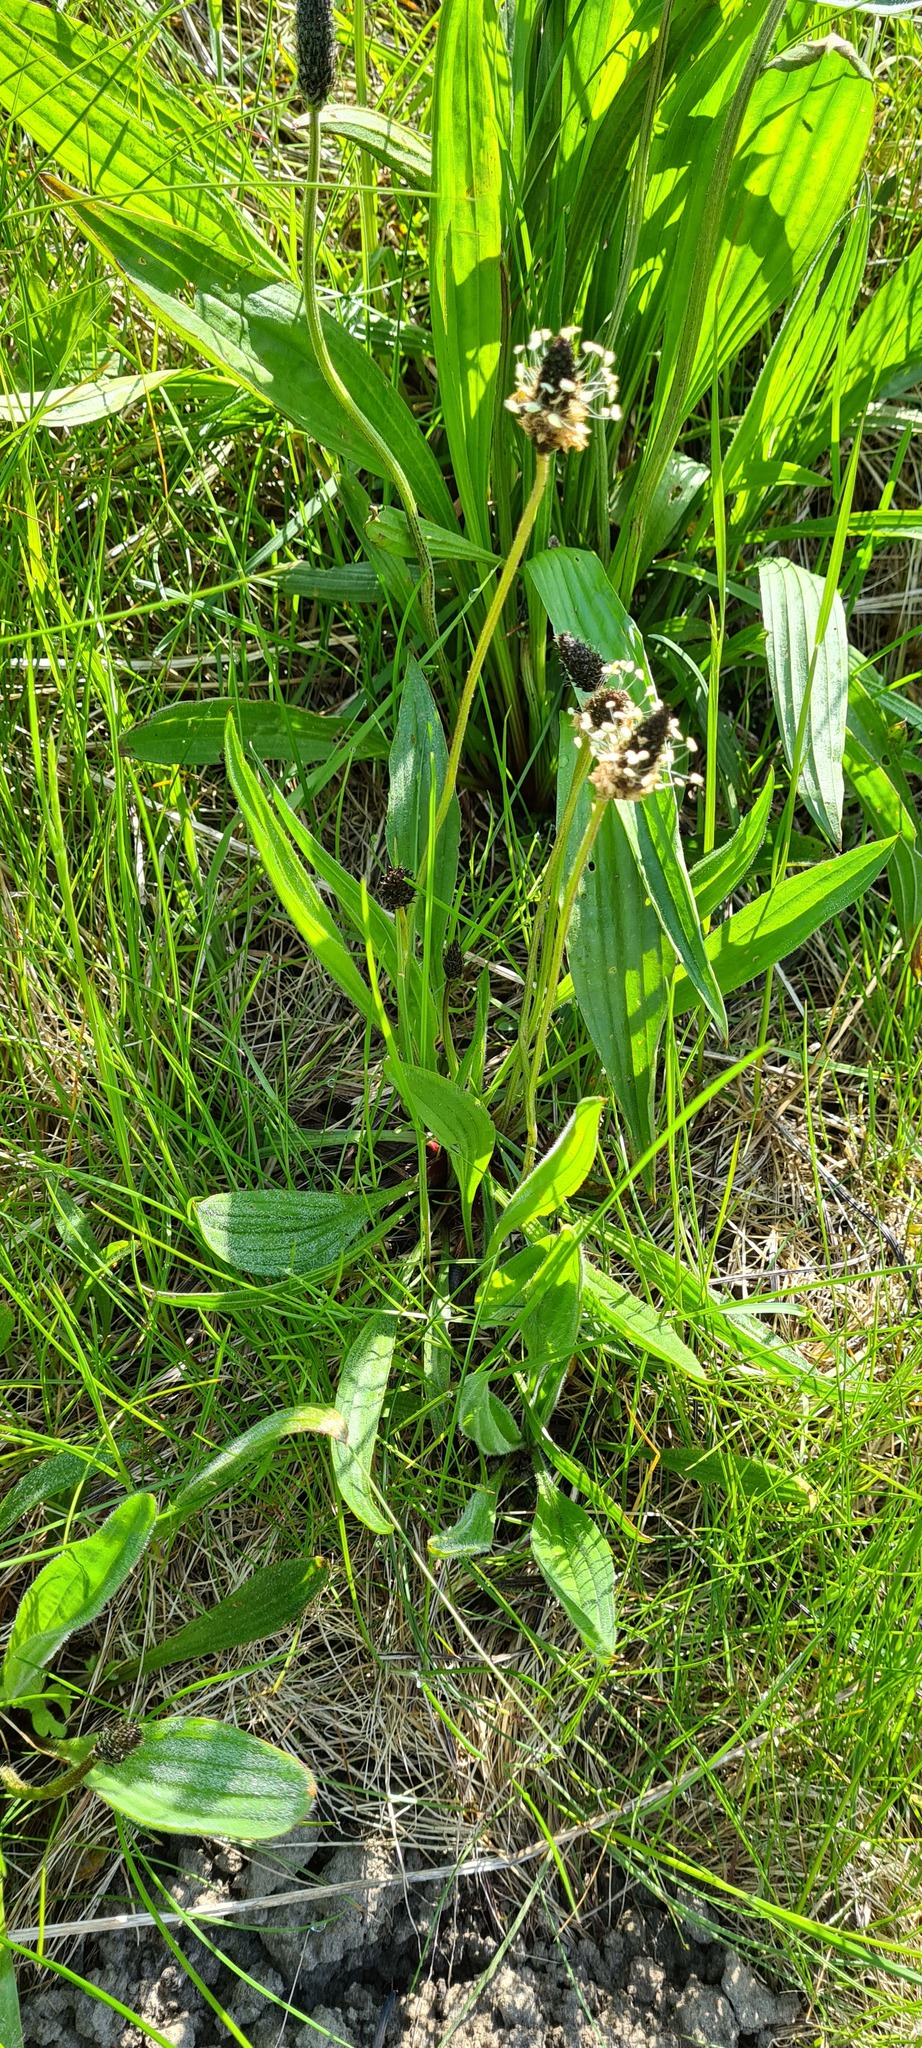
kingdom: Plantae
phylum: Tracheophyta
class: Magnoliopsida
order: Lamiales
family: Plantaginaceae
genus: Plantago
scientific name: Plantago lanceolata
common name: Ribwort plantain
